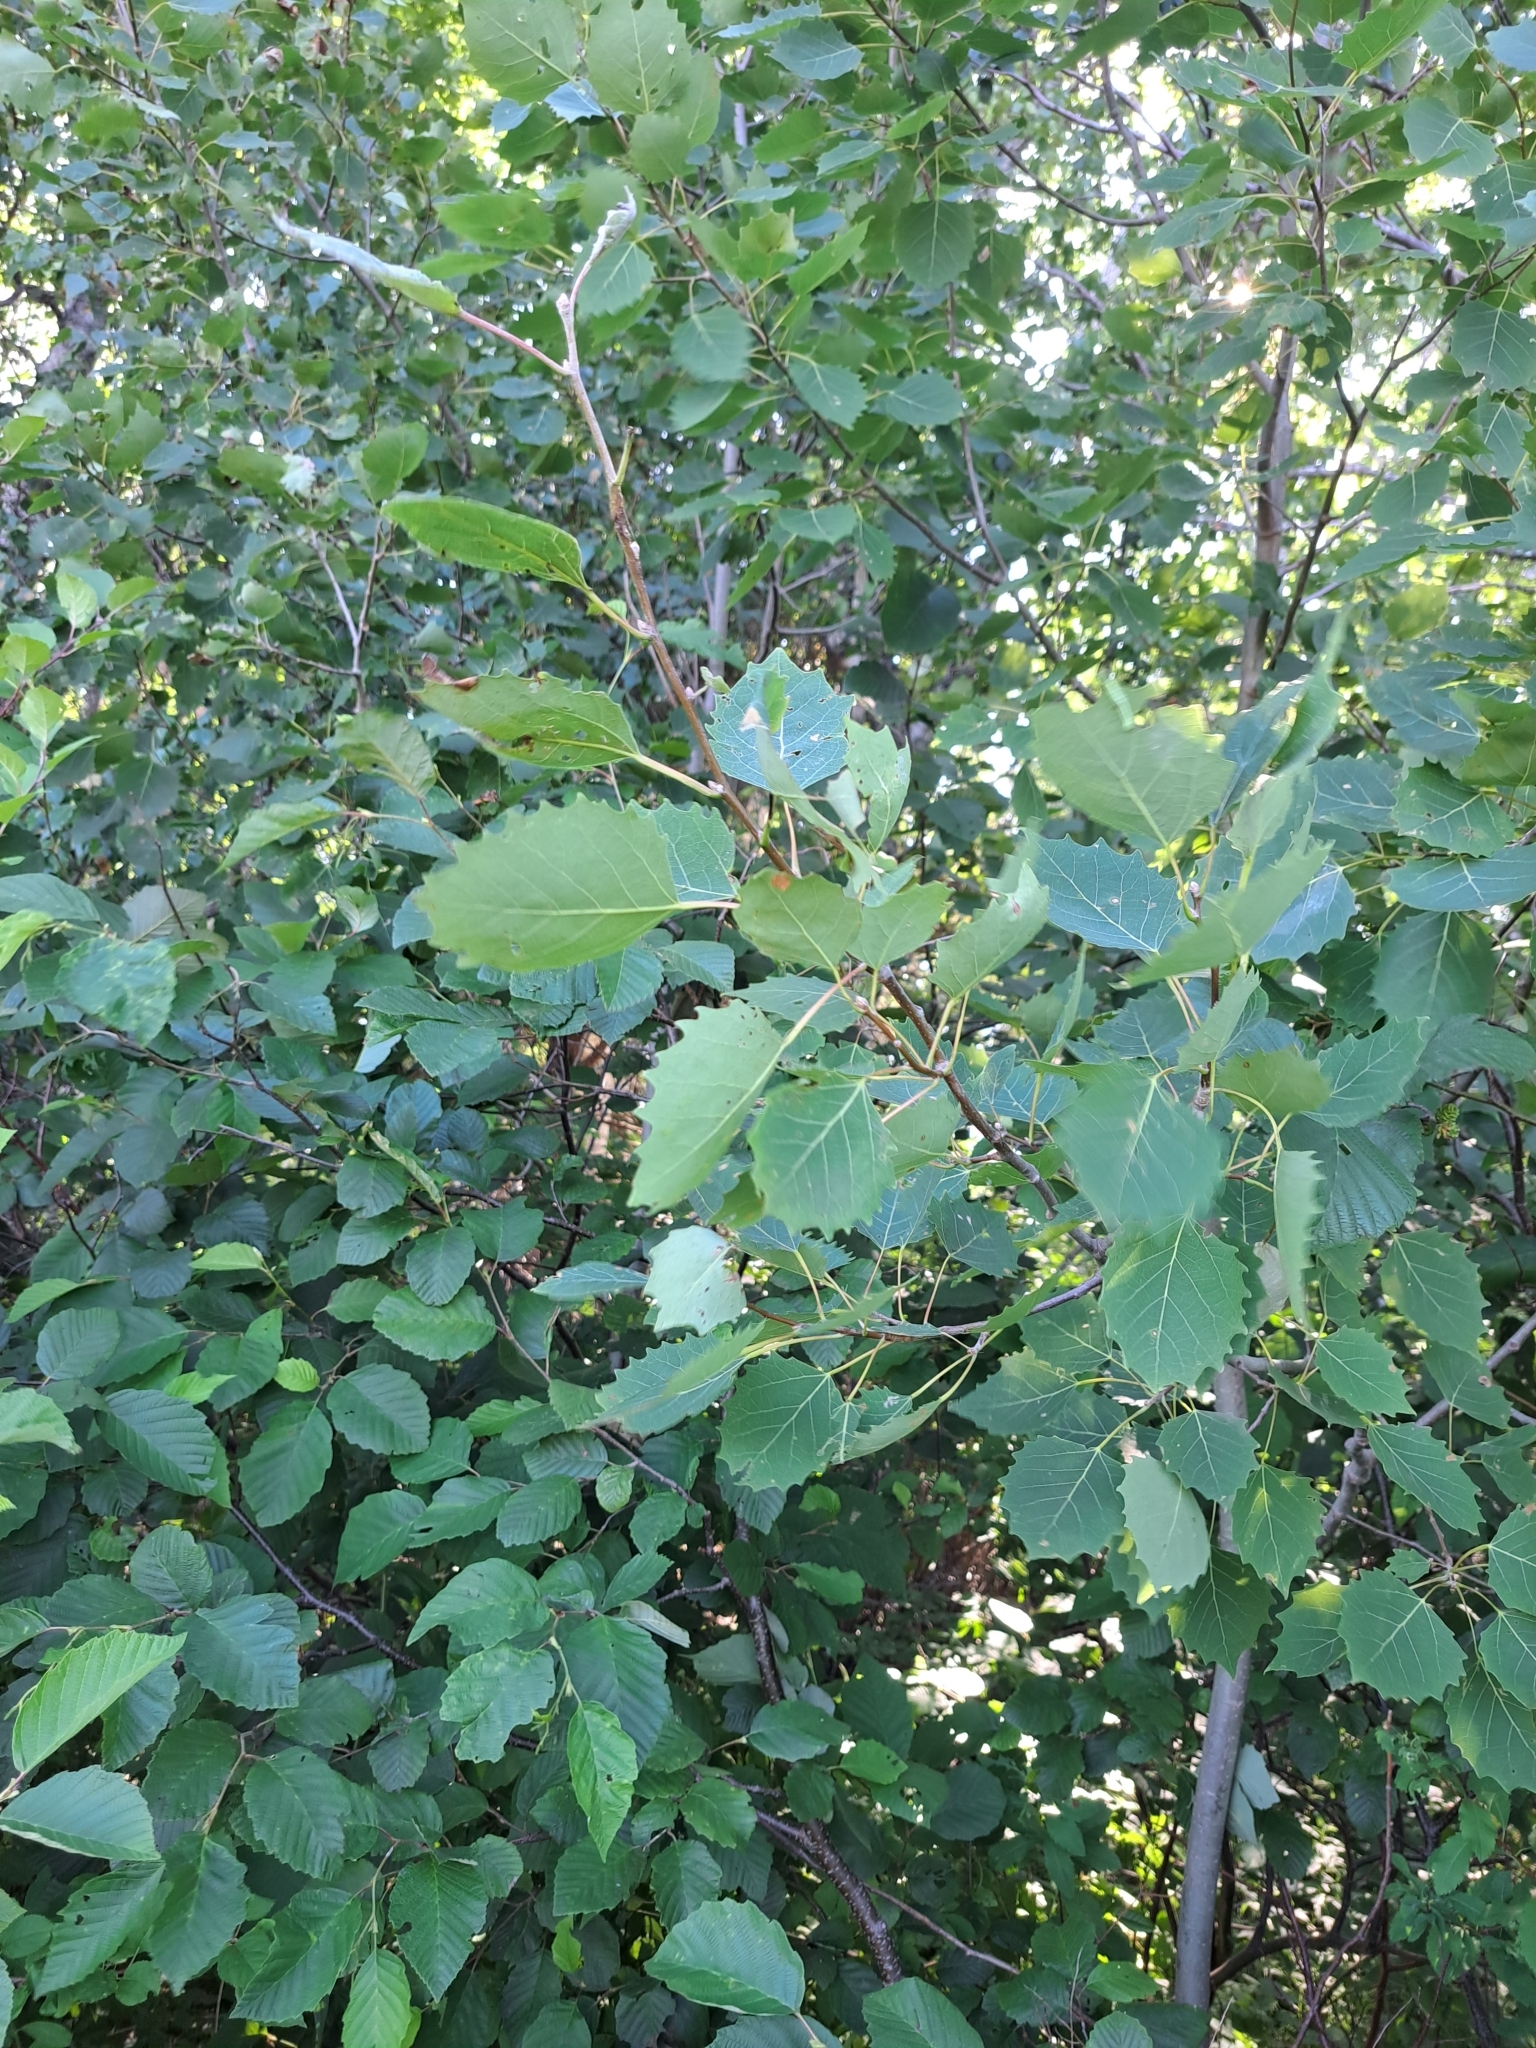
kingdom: Plantae
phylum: Tracheophyta
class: Magnoliopsida
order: Malpighiales
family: Salicaceae
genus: Populus
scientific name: Populus grandidentata
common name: Bigtooth aspen
